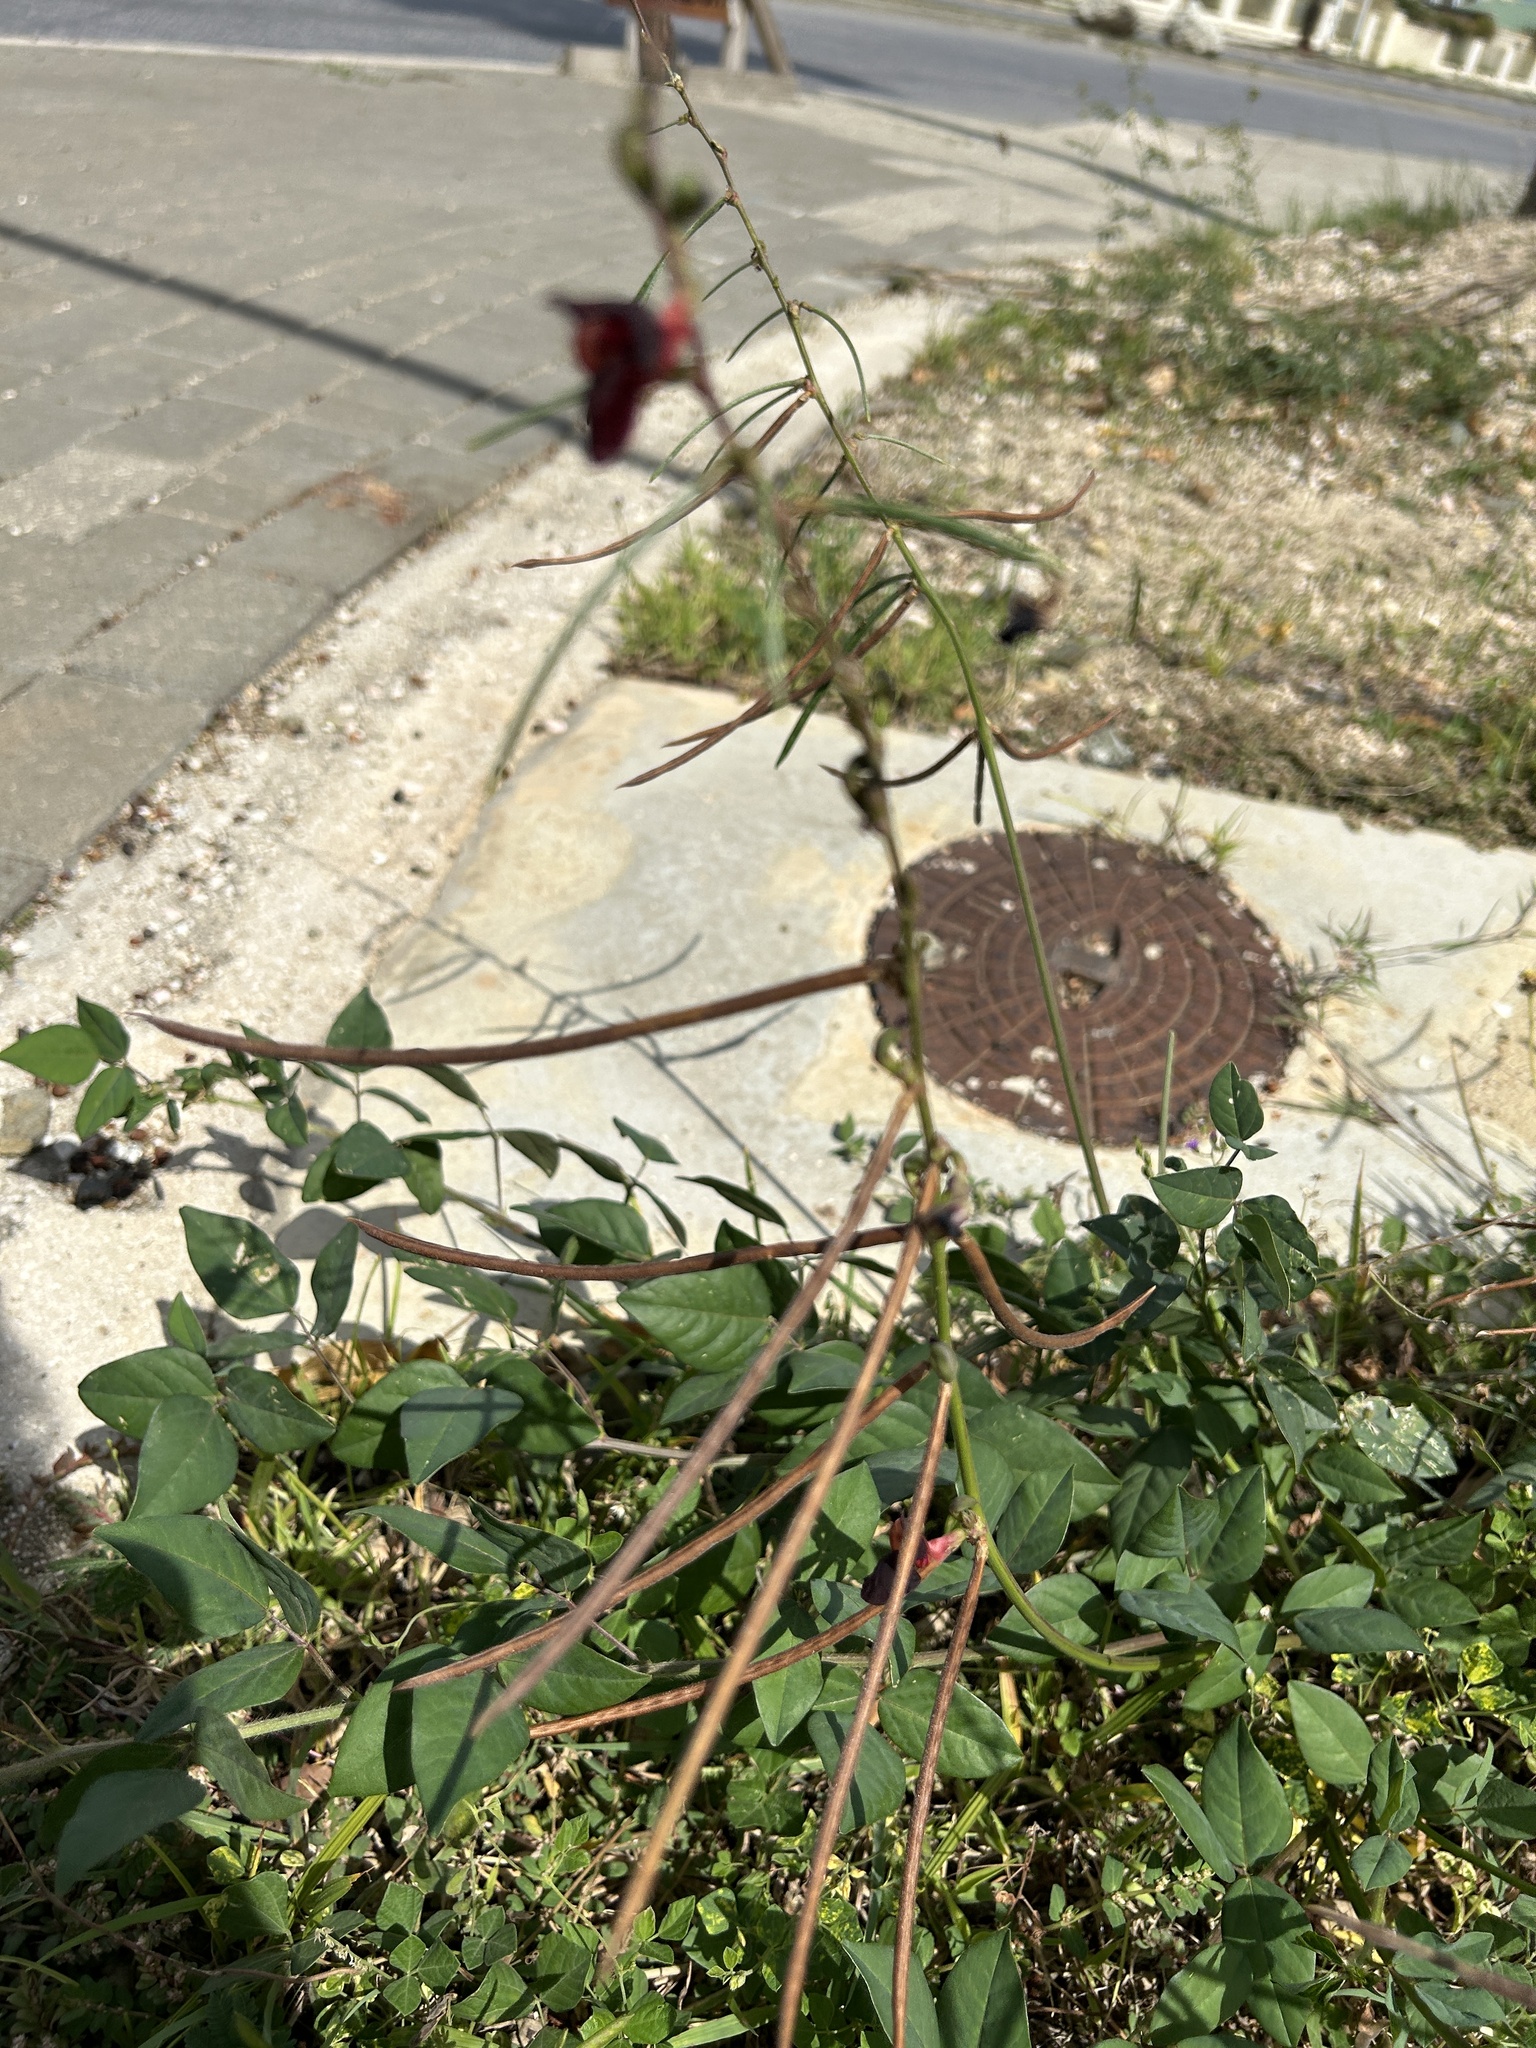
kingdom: Plantae
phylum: Tracheophyta
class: Magnoliopsida
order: Fabales
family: Fabaceae
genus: Macroptilium
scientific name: Macroptilium lathyroides
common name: Wild bushbean
